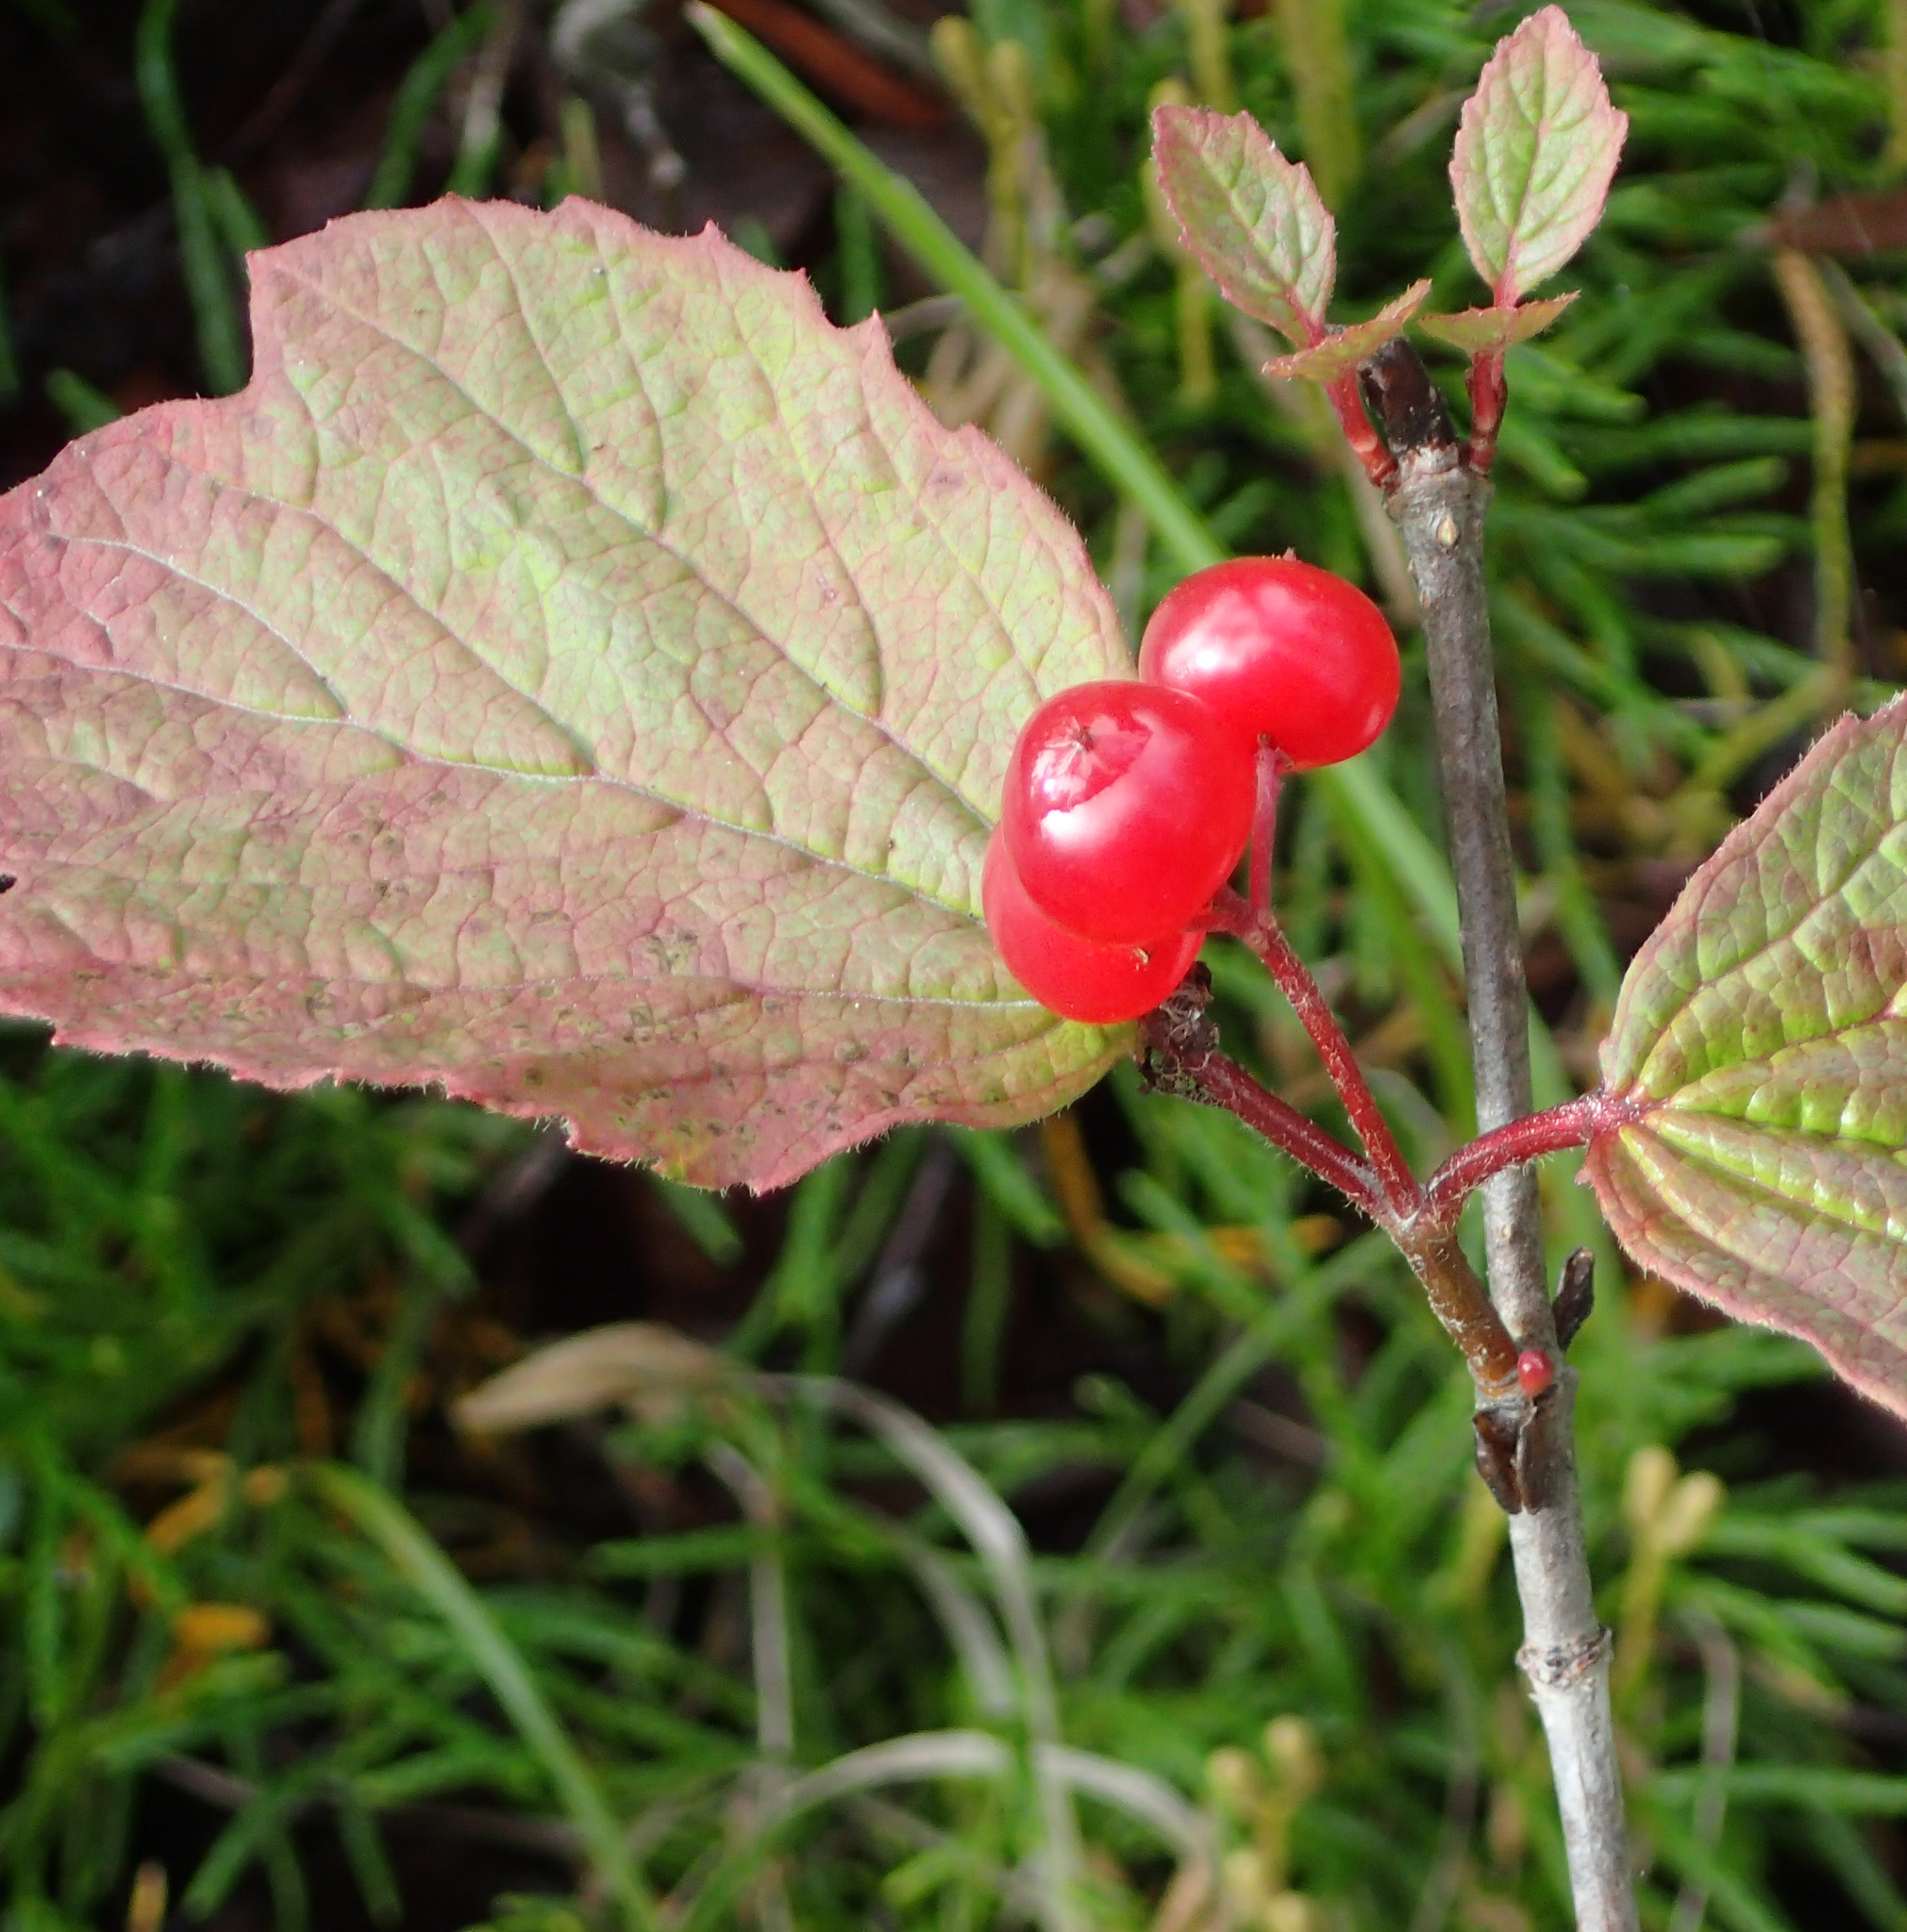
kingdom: Plantae
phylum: Tracheophyta
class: Magnoliopsida
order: Dipsacales
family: Viburnaceae
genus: Viburnum
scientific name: Viburnum edule
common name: Mooseberry
